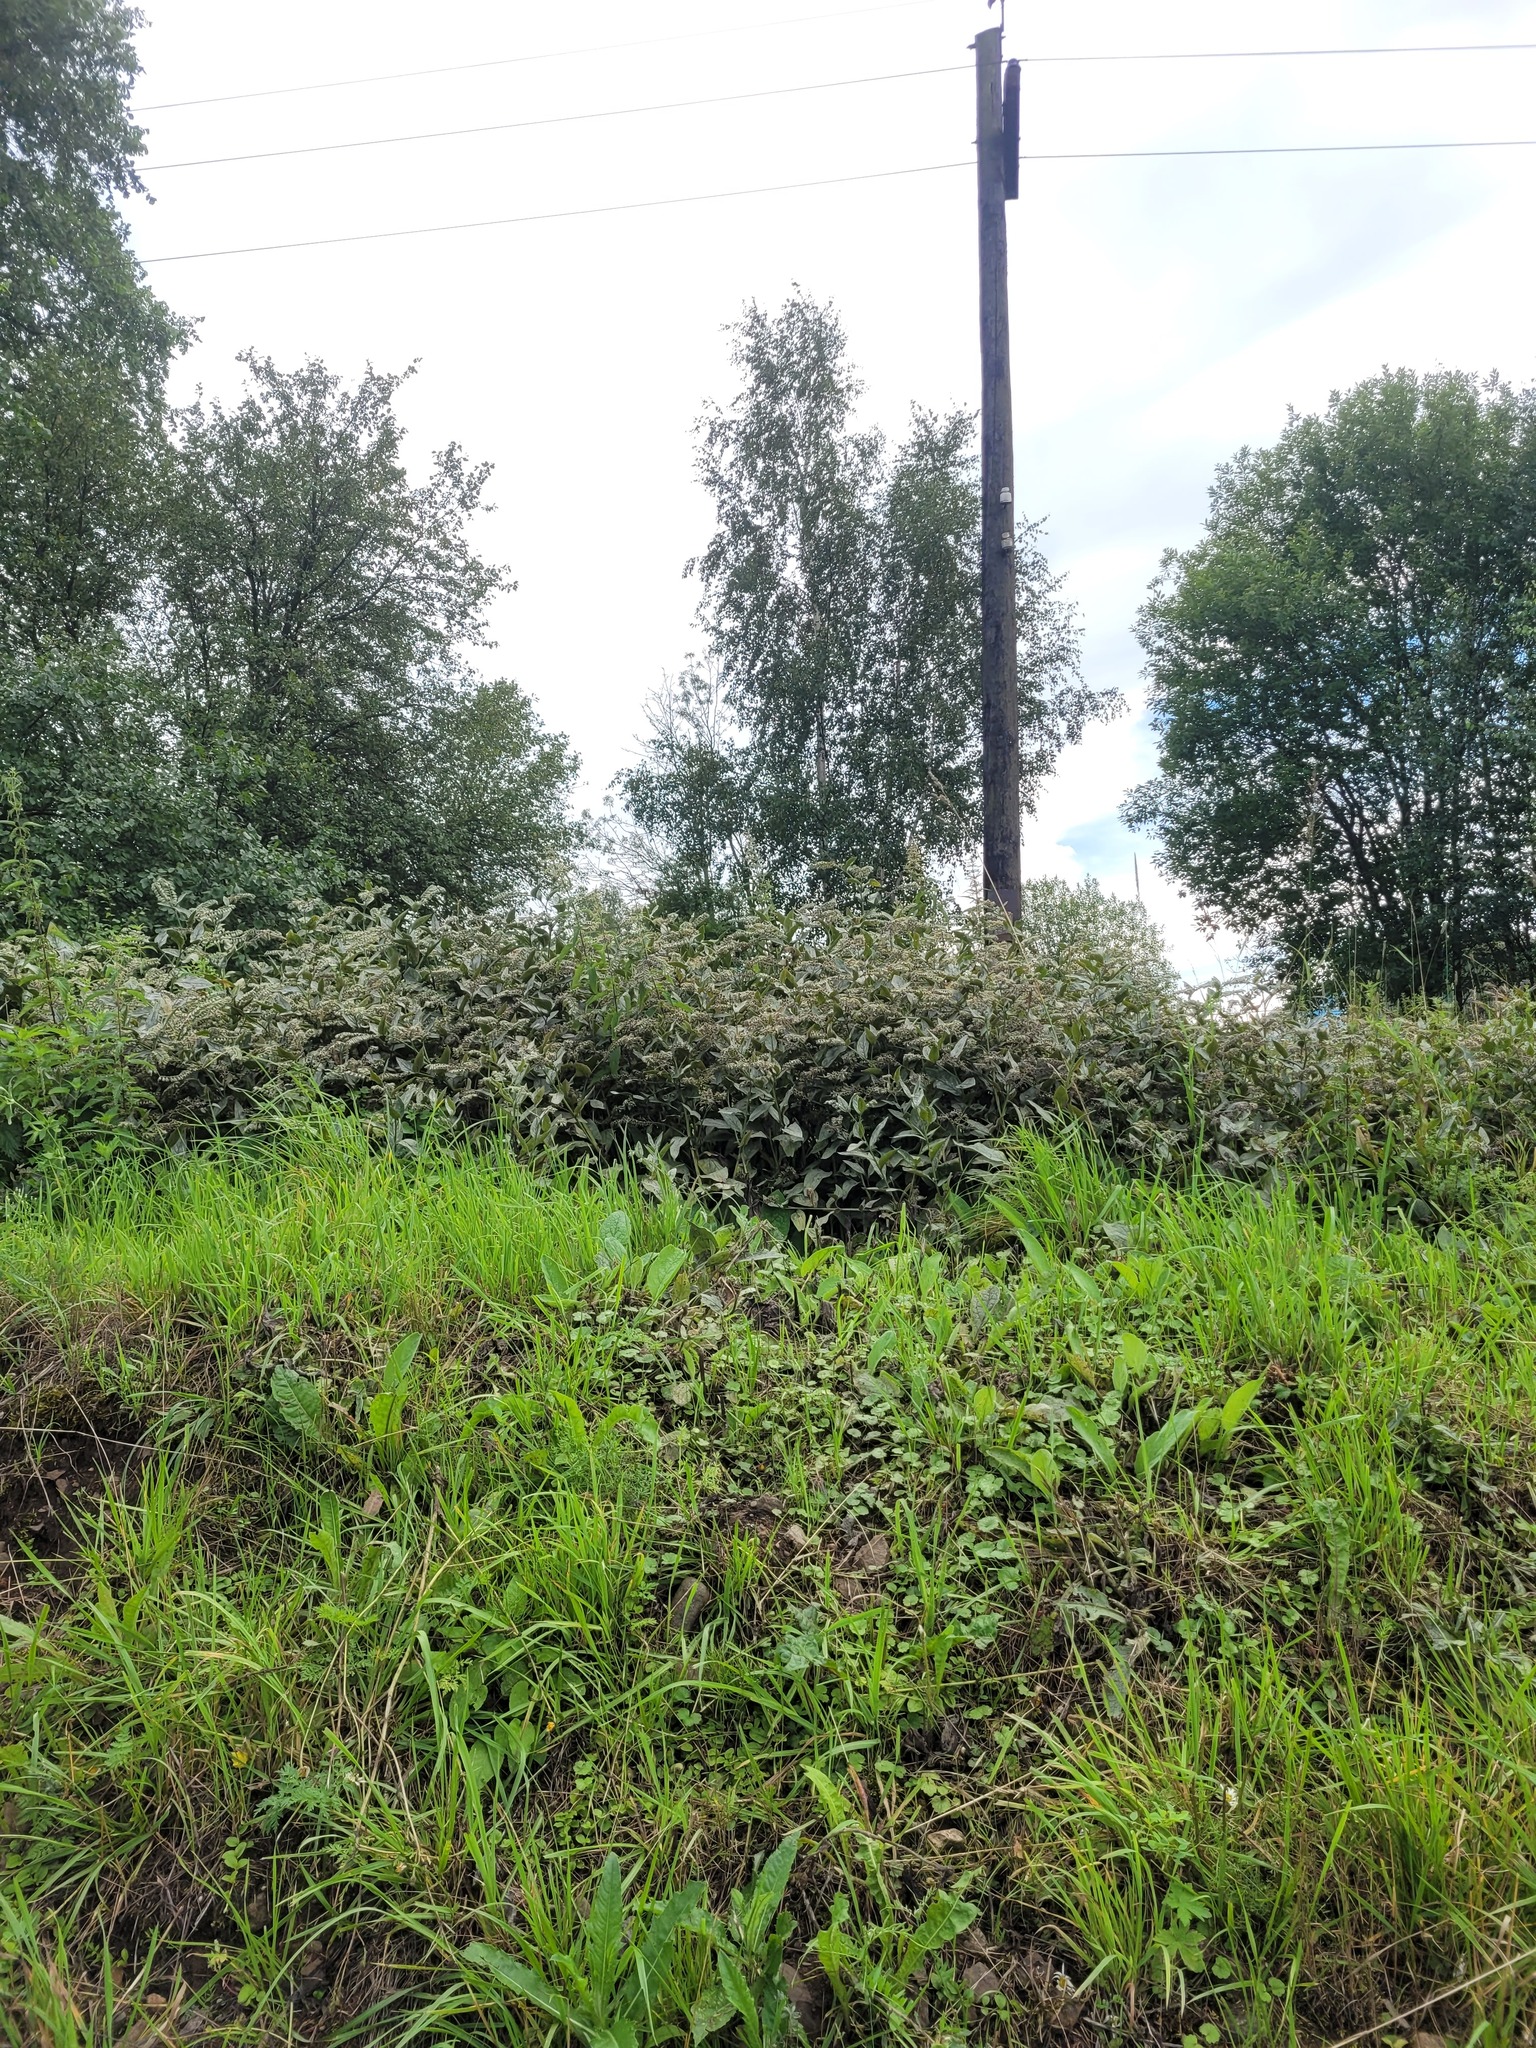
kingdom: Plantae
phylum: Tracheophyta
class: Magnoliopsida
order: Boraginales
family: Boraginaceae
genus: Symphytum
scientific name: Symphytum caucasicum
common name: Caucasian comfrey
